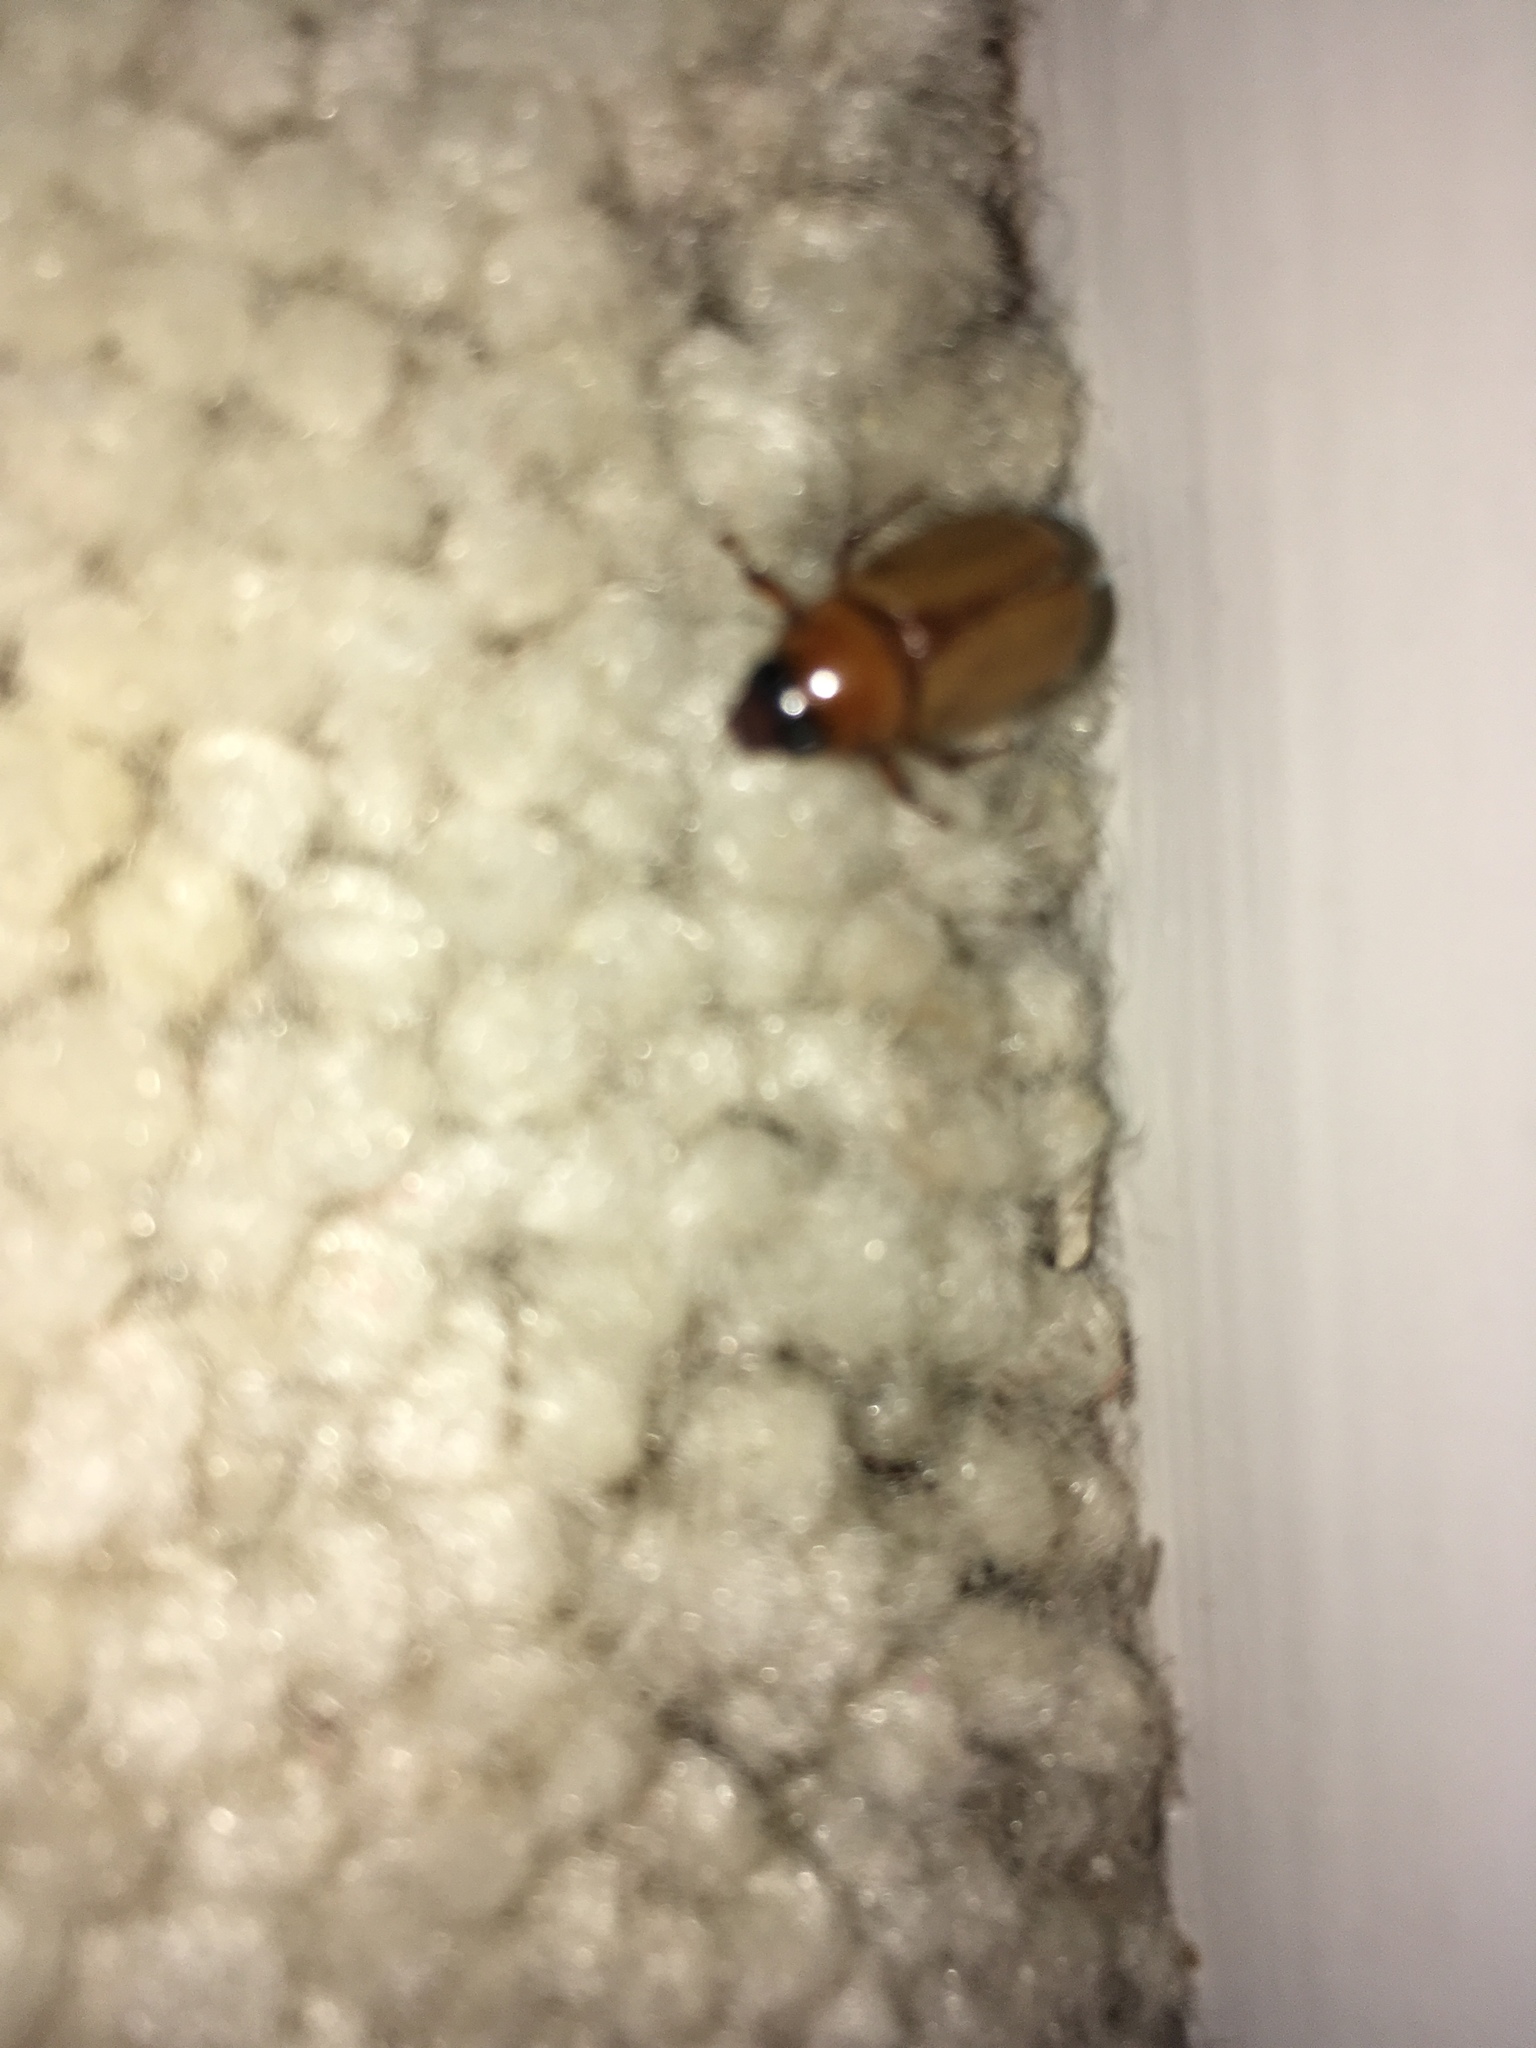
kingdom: Animalia
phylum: Arthropoda
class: Insecta
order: Coleoptera
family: Scarabaeidae
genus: Cyclocephala
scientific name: Cyclocephala longula
